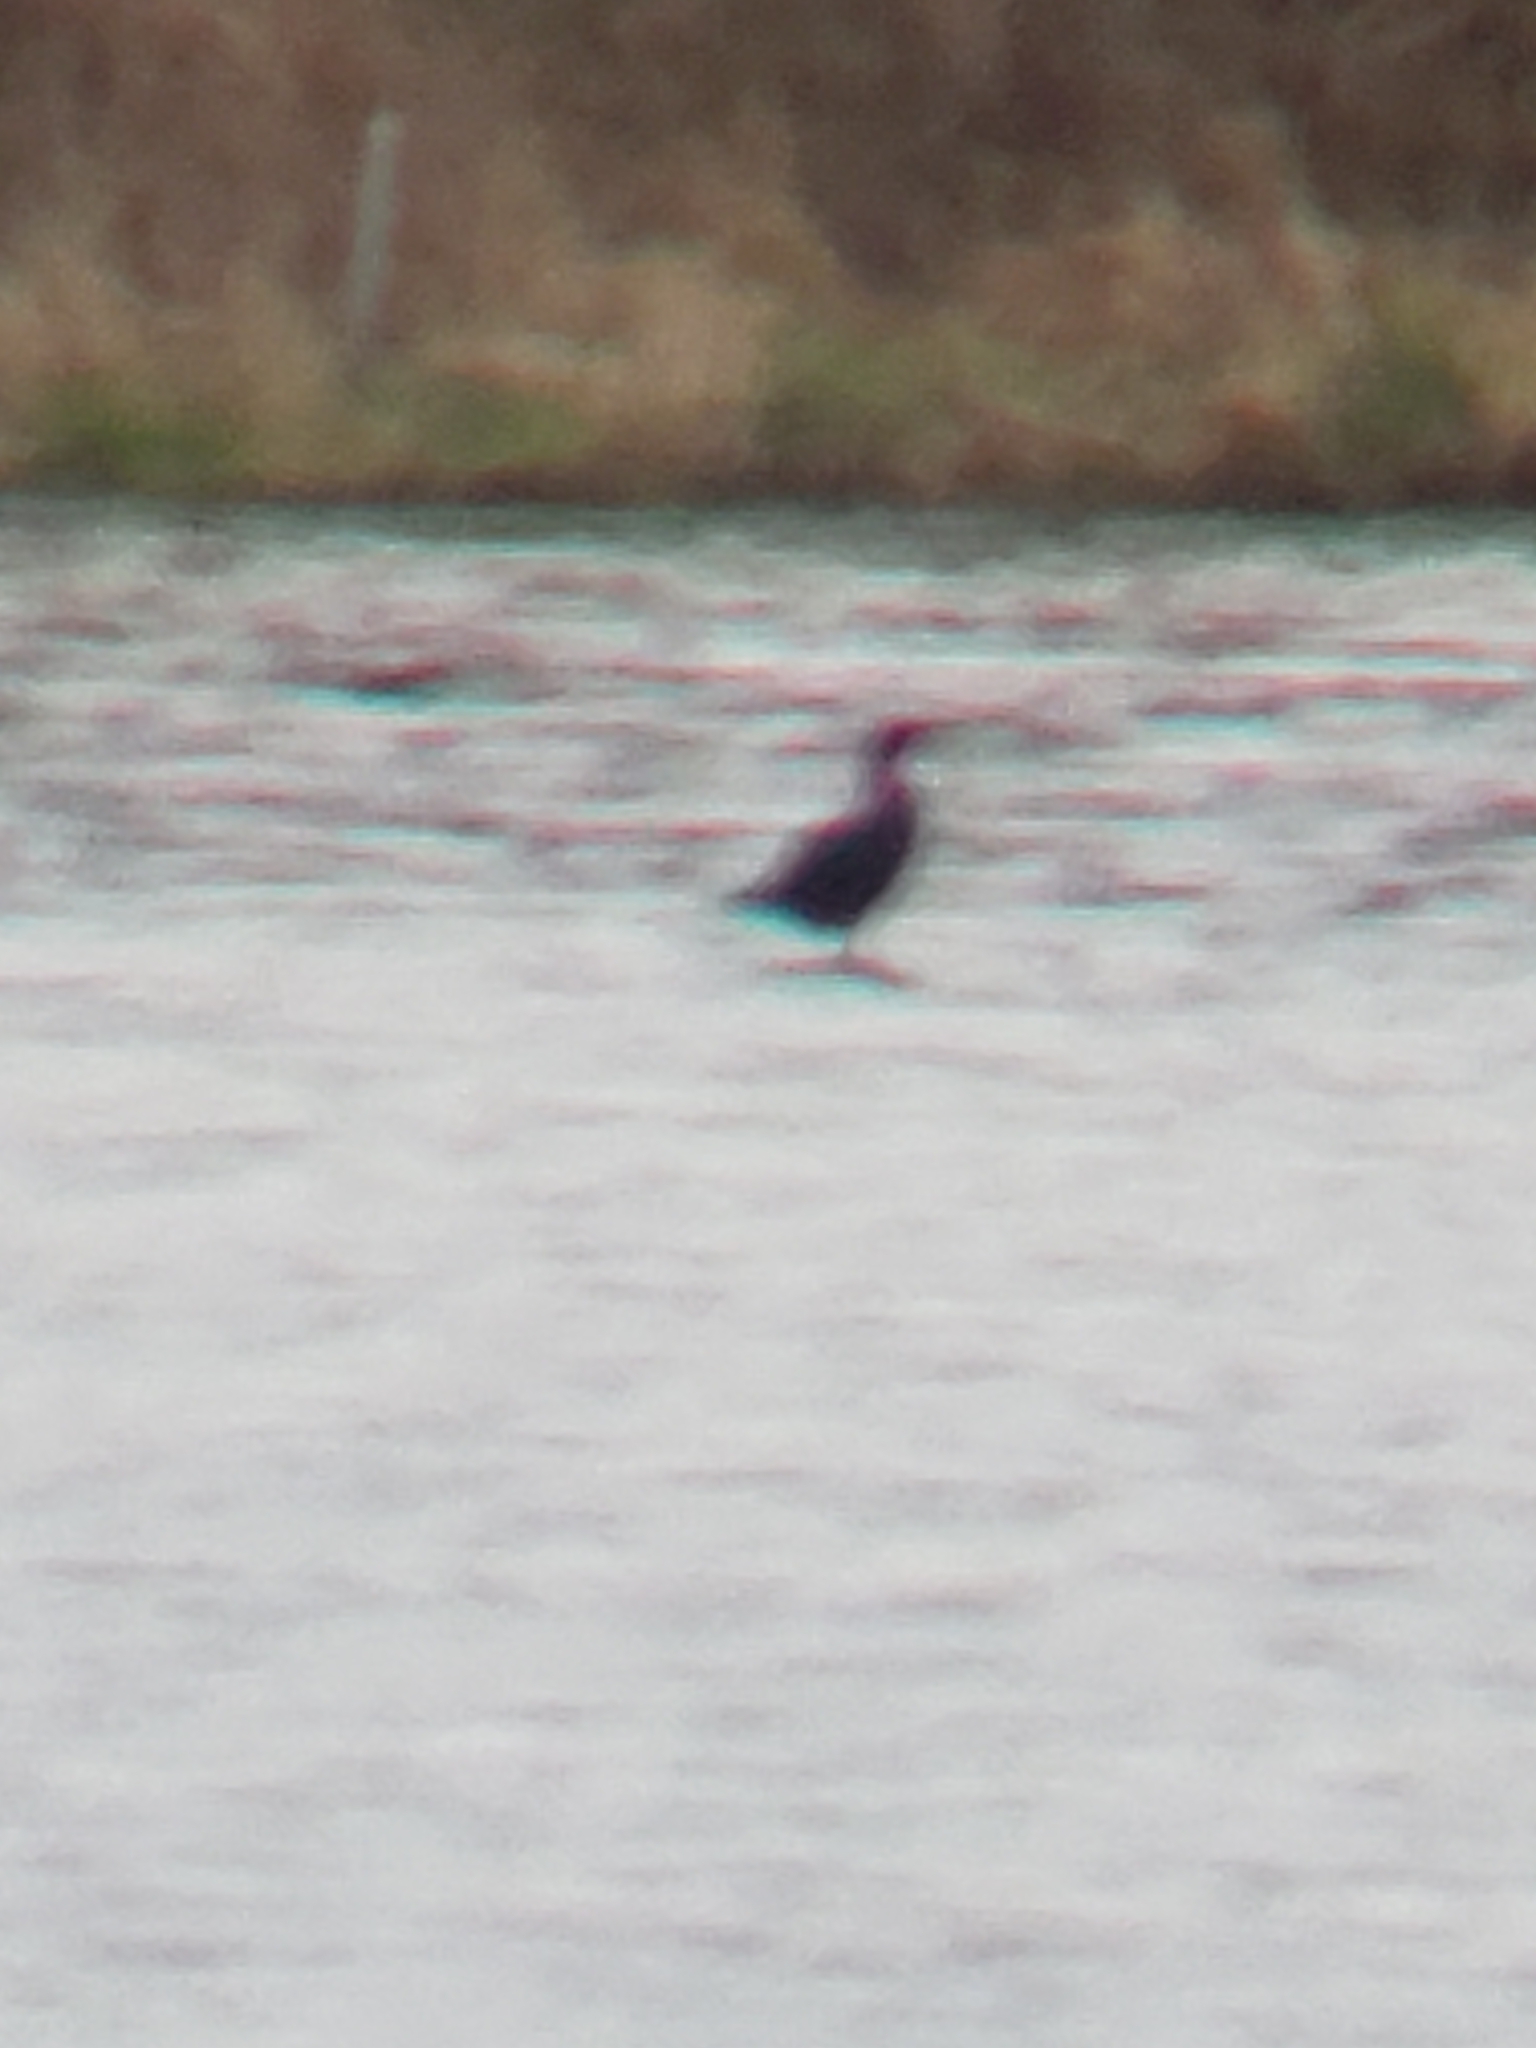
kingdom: Animalia
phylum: Chordata
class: Aves
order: Suliformes
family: Phalacrocoracidae
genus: Phalacrocorax
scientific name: Phalacrocorax auritus
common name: Double-crested cormorant
